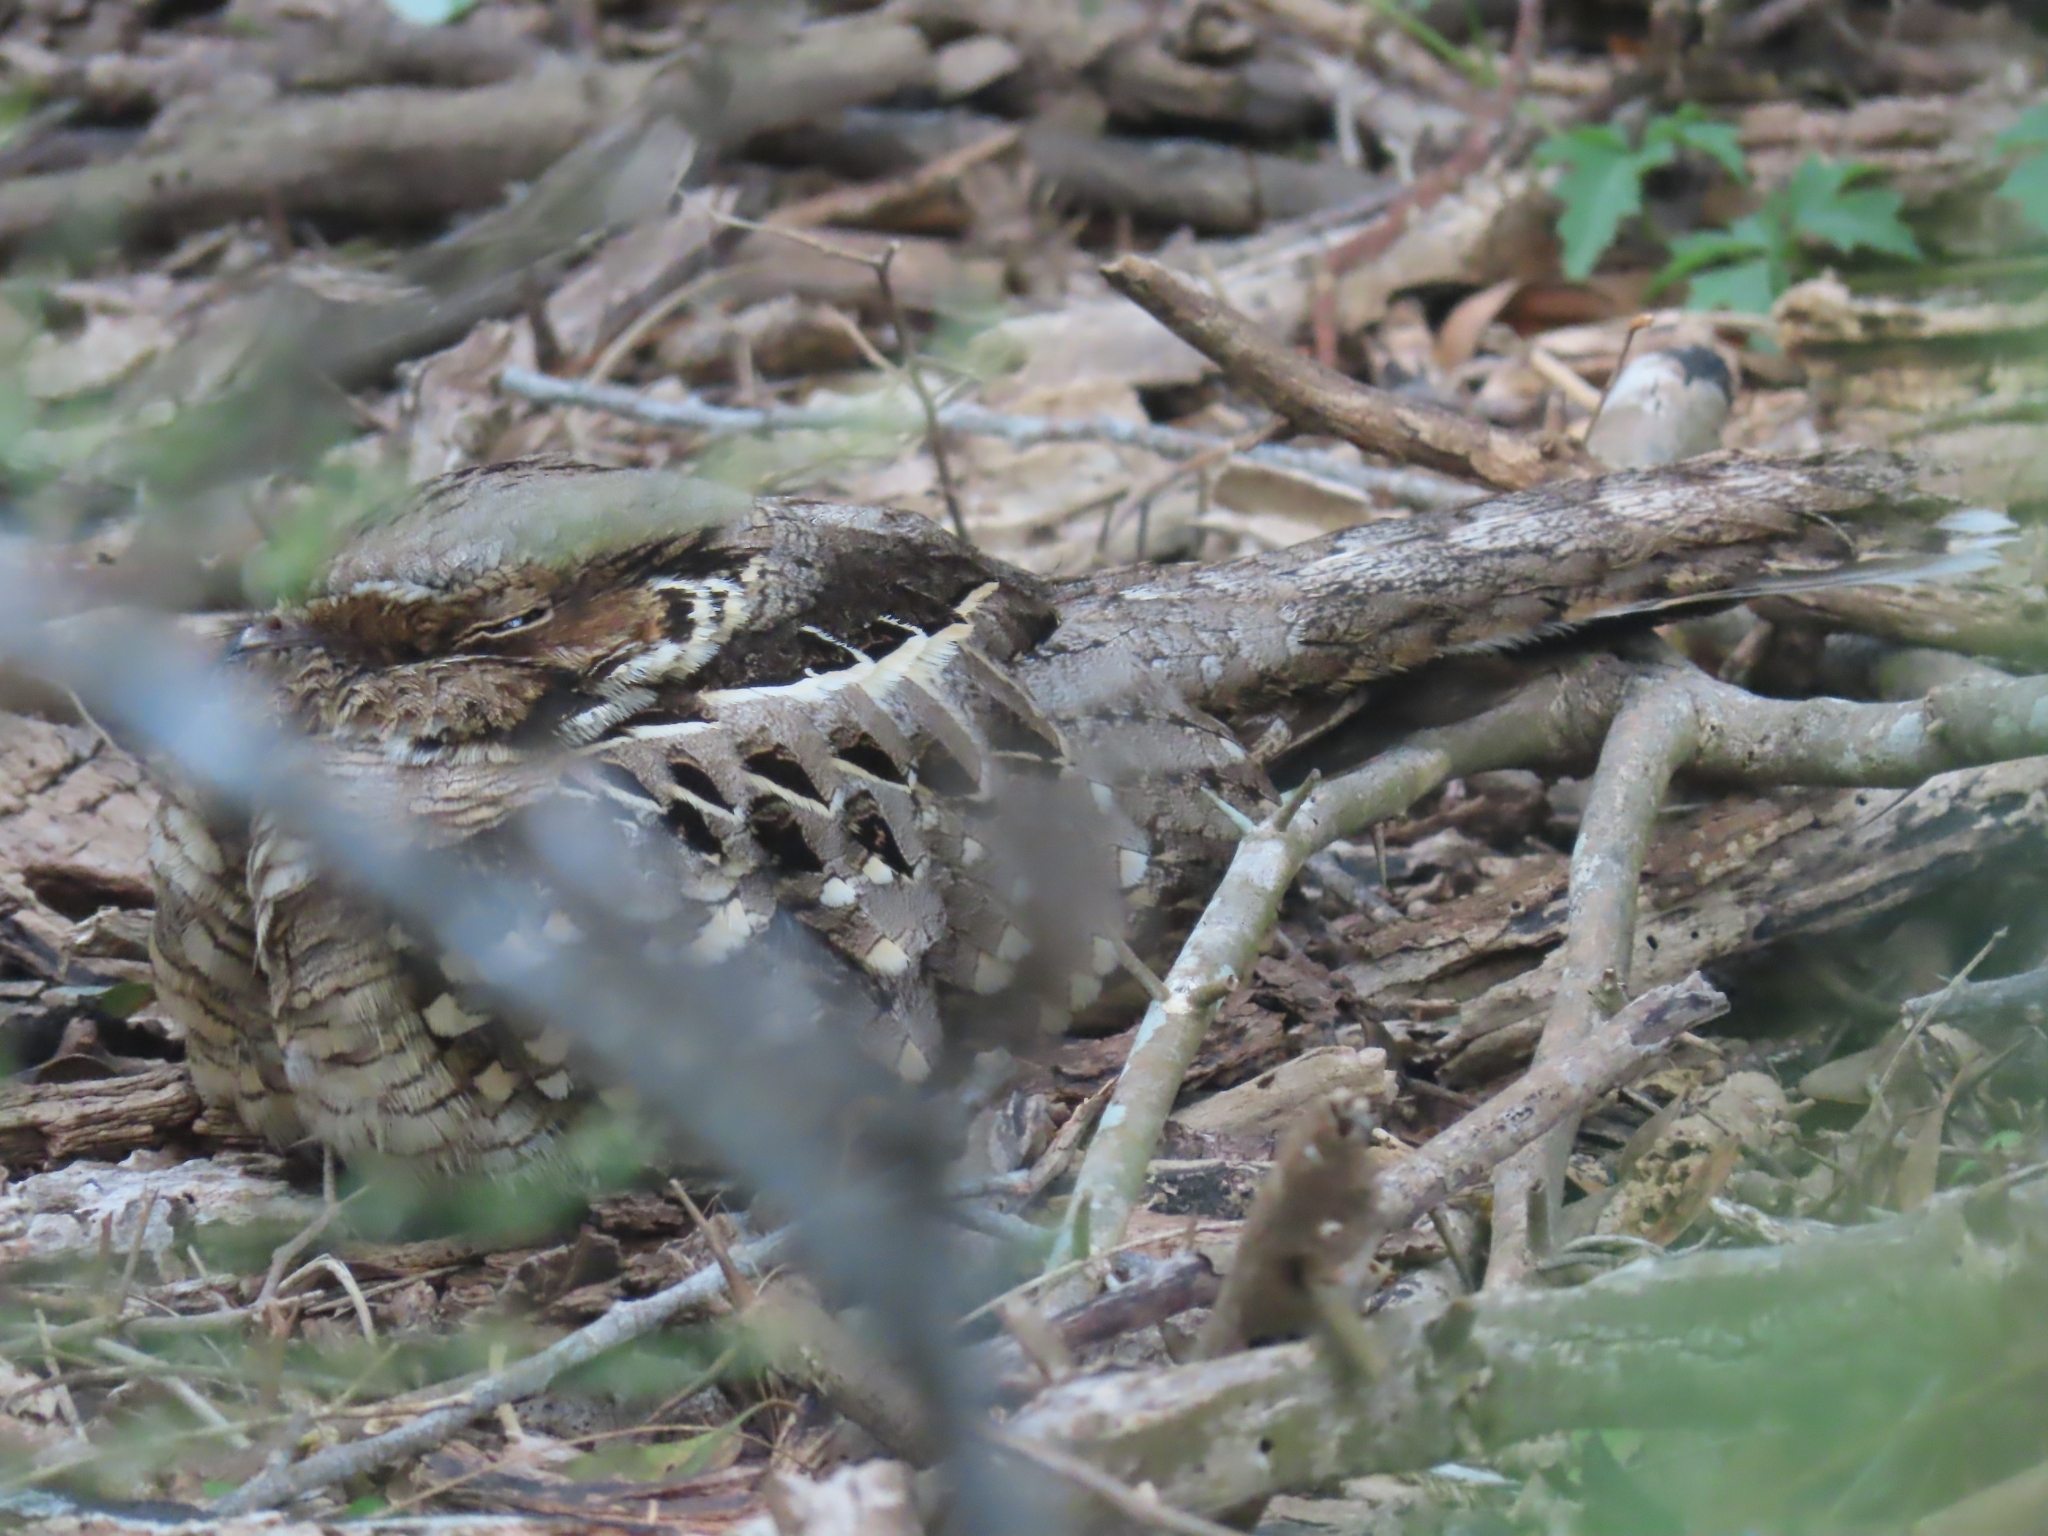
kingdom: Animalia
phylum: Chordata
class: Aves
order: Caprimulgiformes
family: Caprimulgidae
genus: Nyctidromus
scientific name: Nyctidromus albicollis
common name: Pauraque
